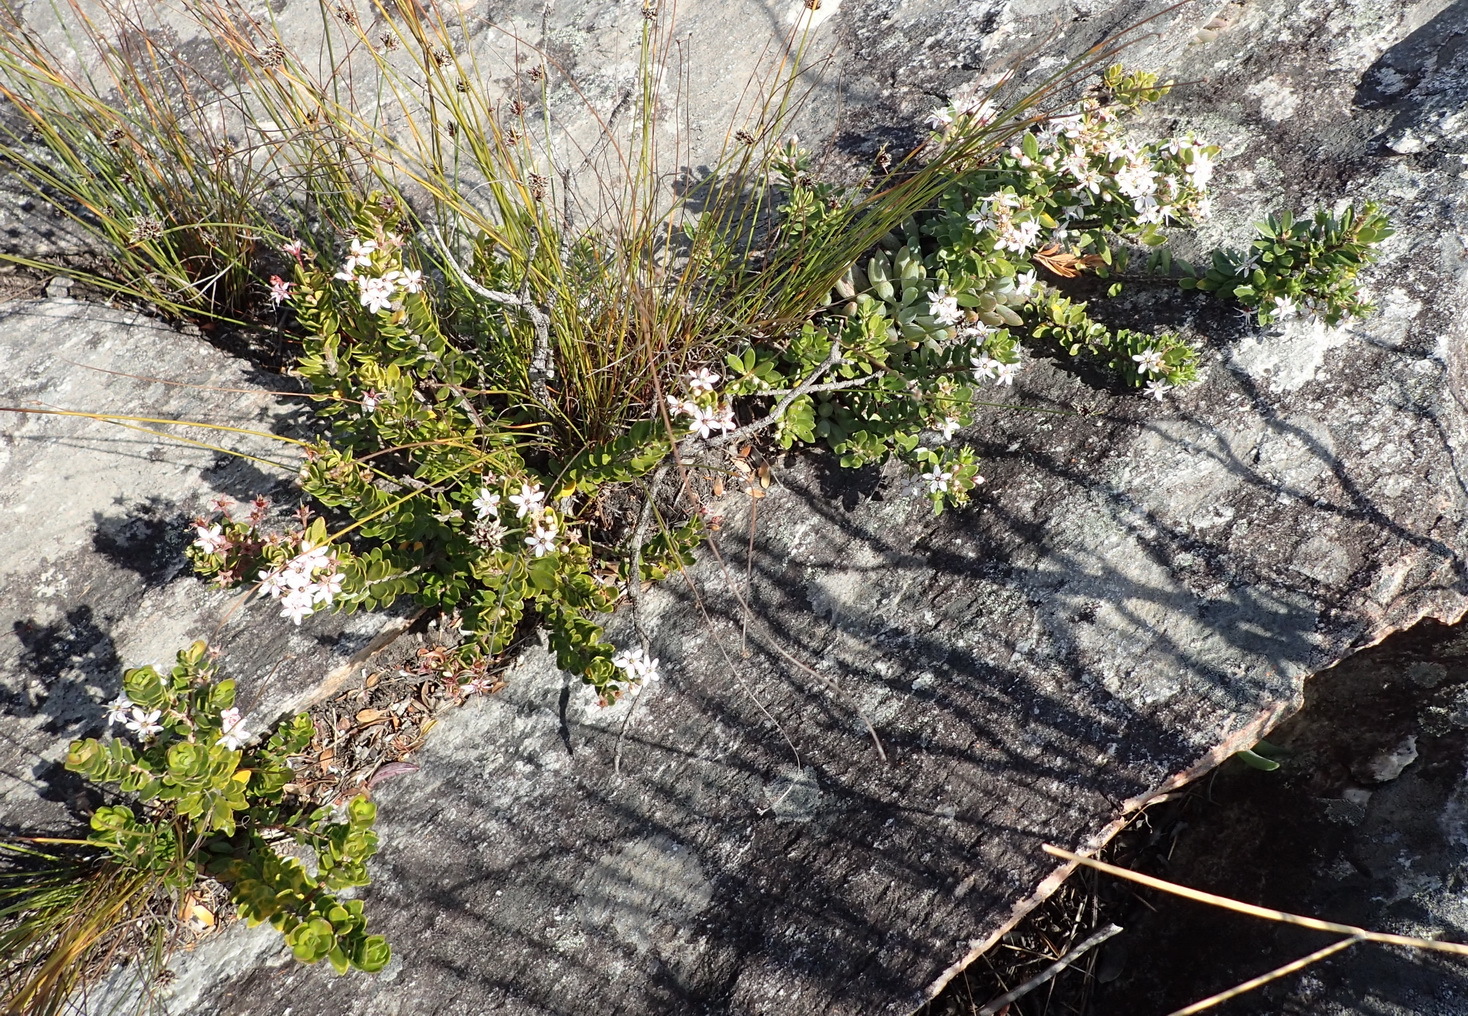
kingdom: Plantae
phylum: Tracheophyta
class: Magnoliopsida
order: Sapindales
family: Rutaceae
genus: Agathosma
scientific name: Agathosma ovata
